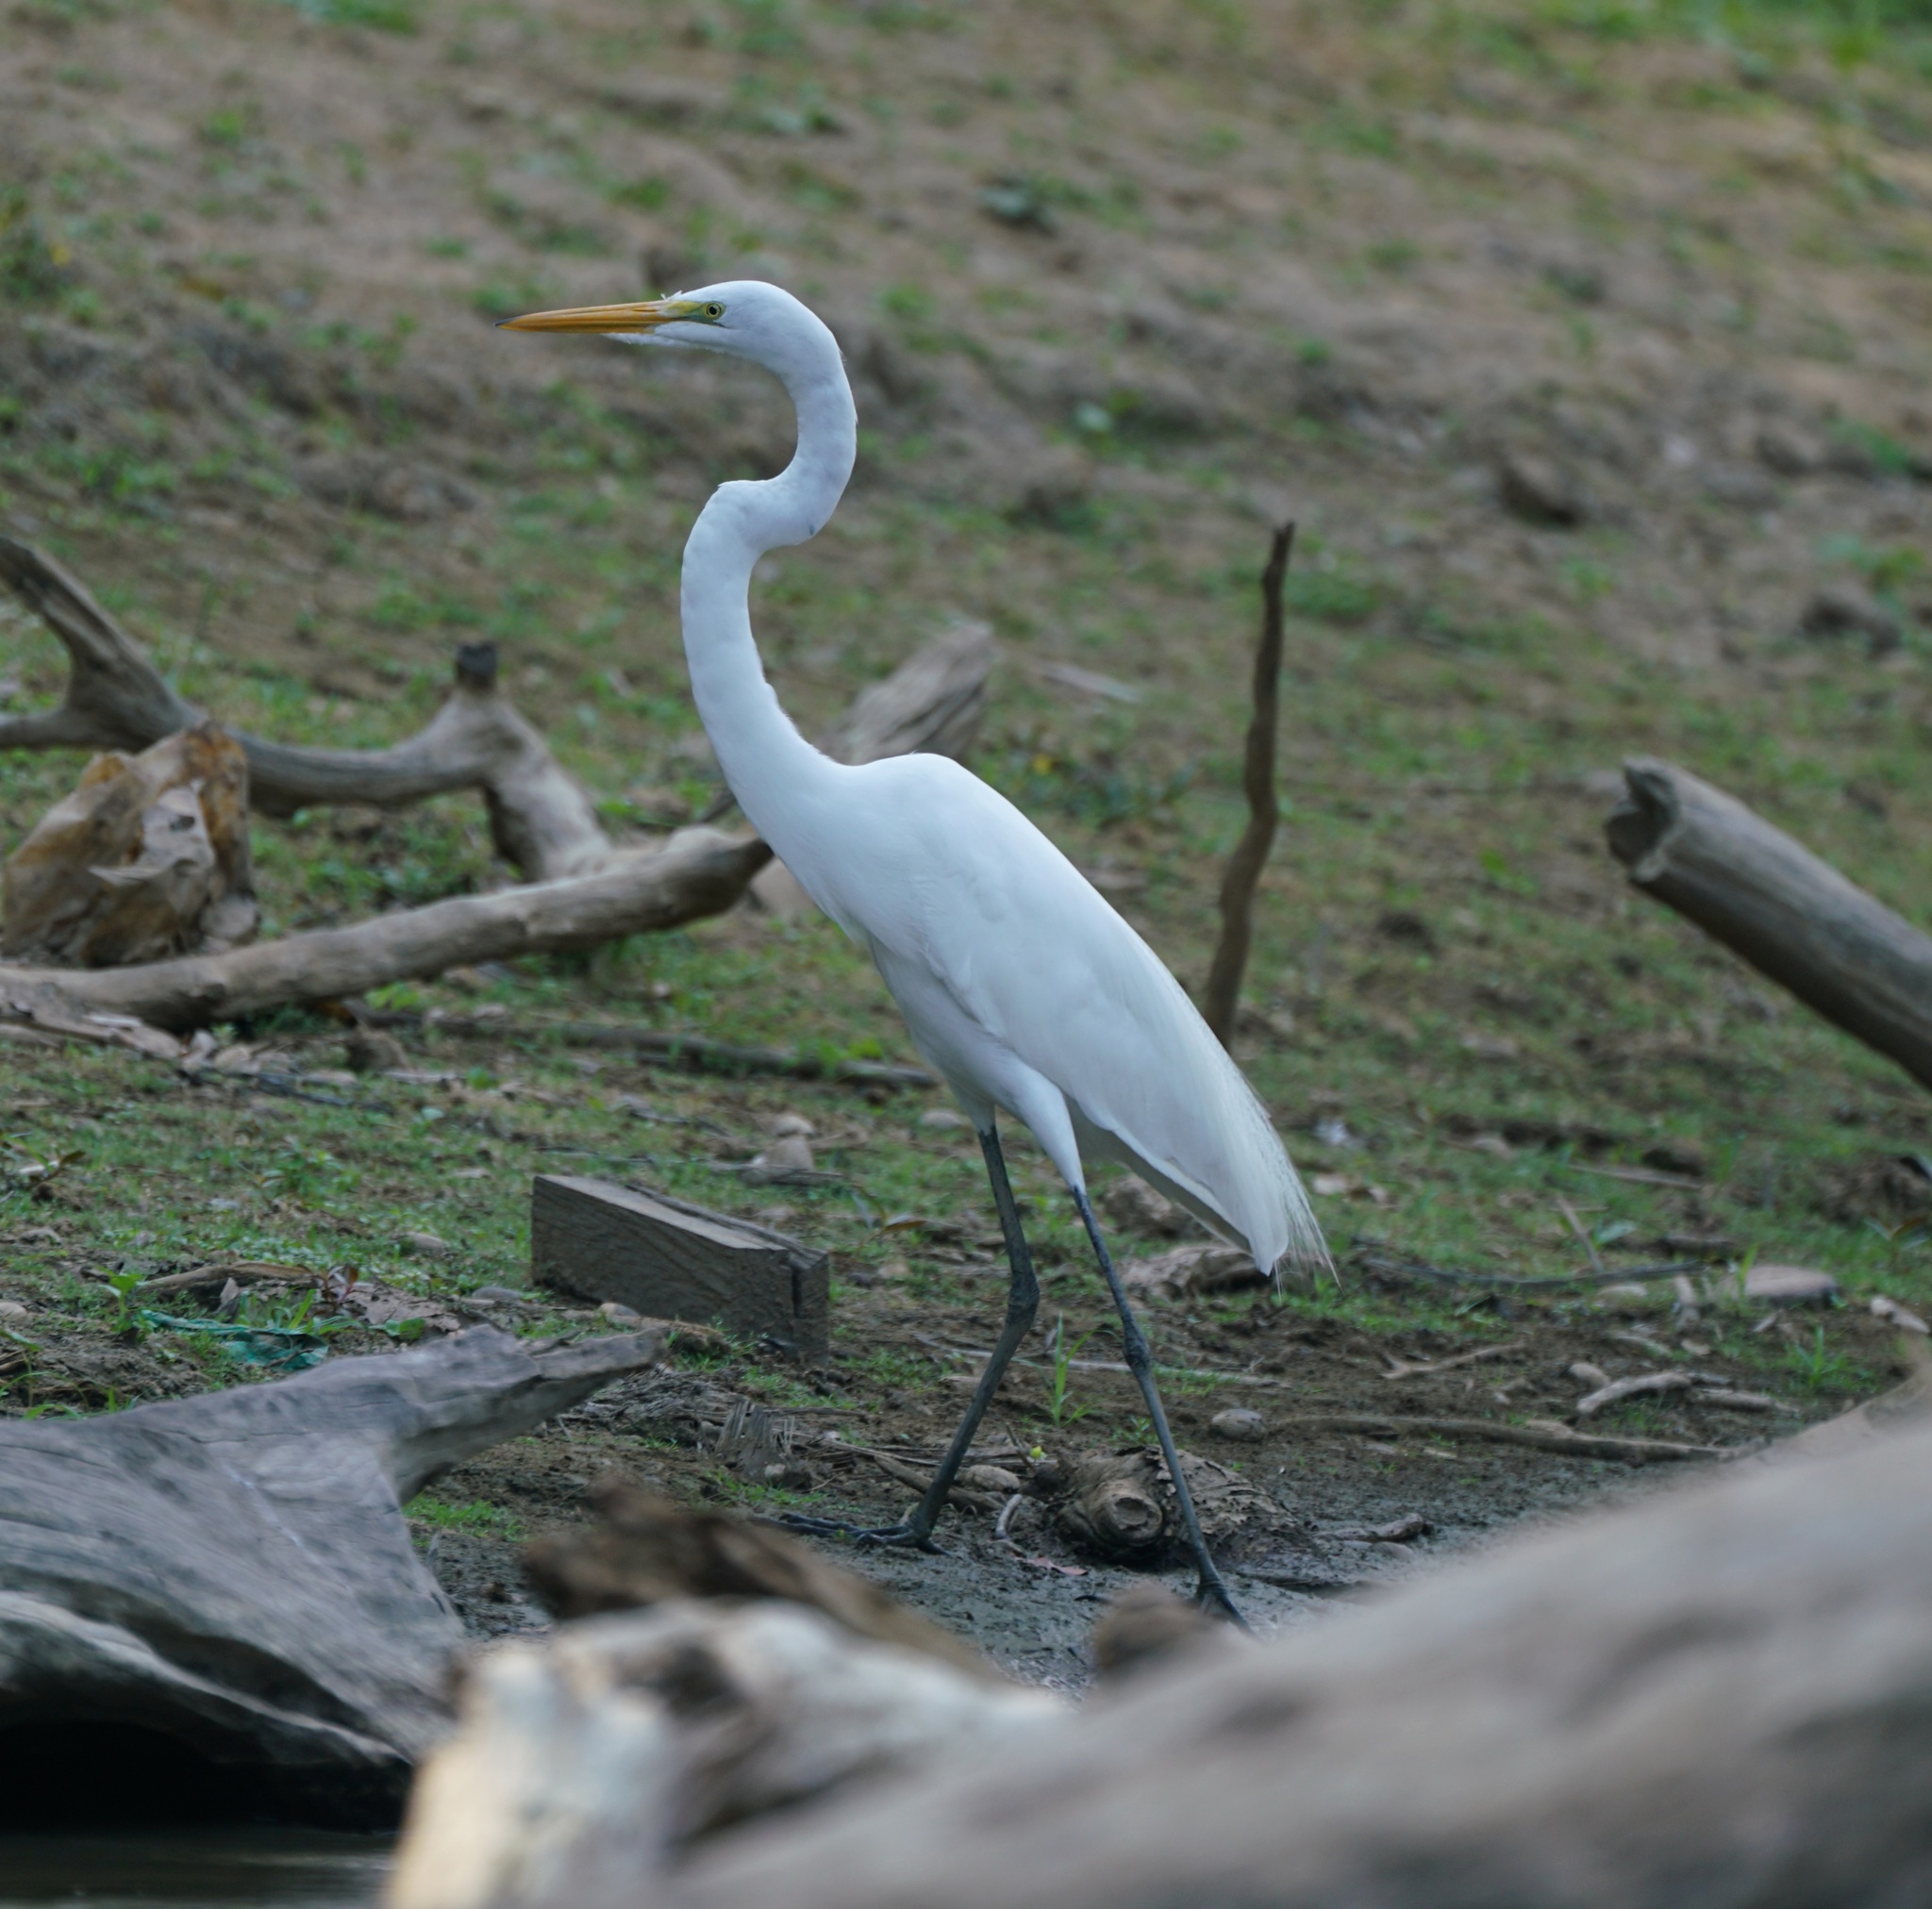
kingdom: Animalia
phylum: Chordata
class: Aves
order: Pelecaniformes
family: Ardeidae
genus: Ardea
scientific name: Ardea alba
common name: Great egret
